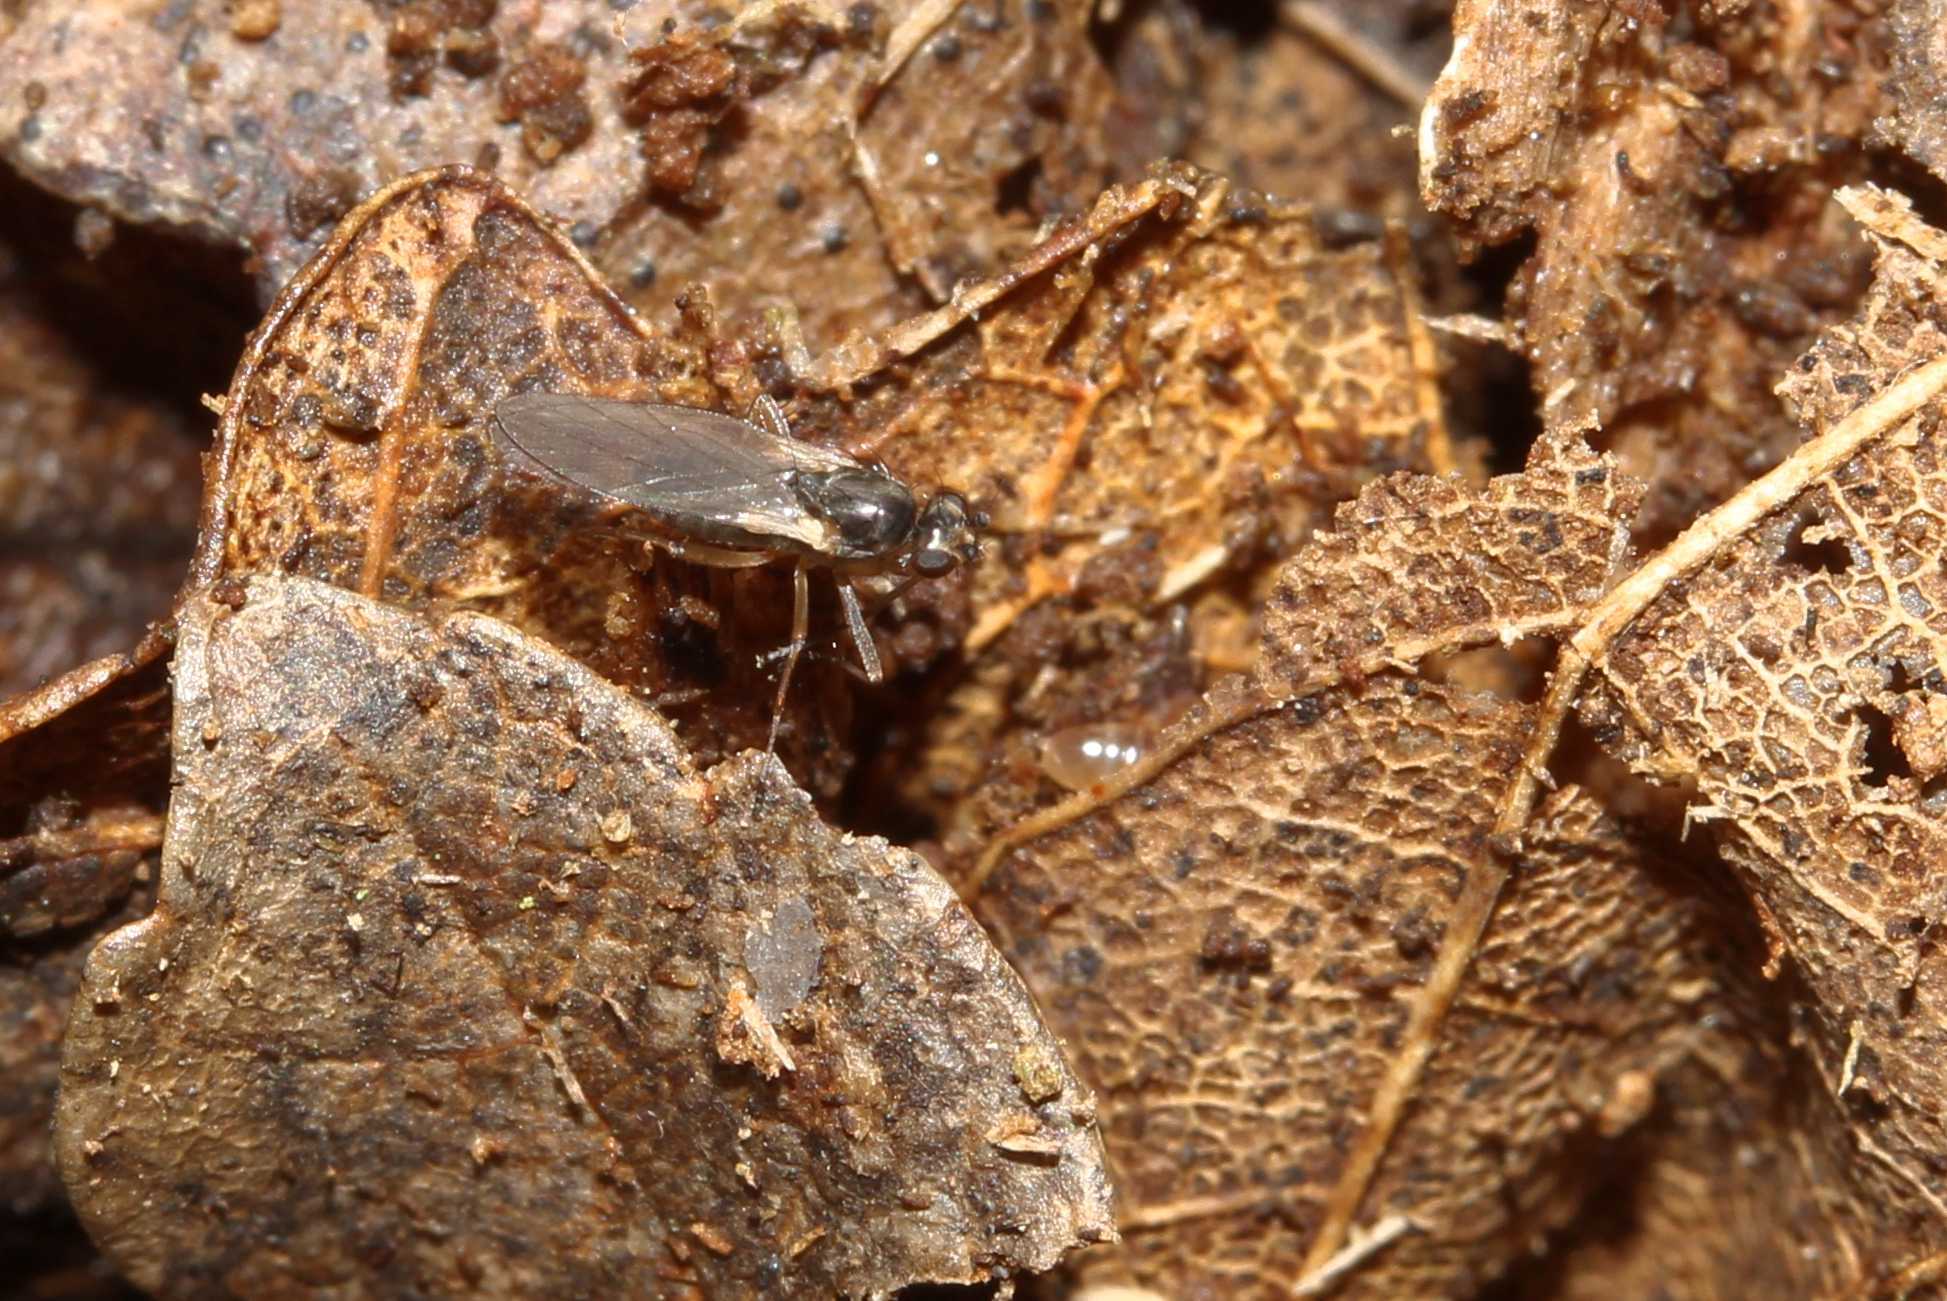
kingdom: Animalia
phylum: Arthropoda
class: Insecta
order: Diptera
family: Lonchopteridae
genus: Lonchoptera
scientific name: Lonchoptera
